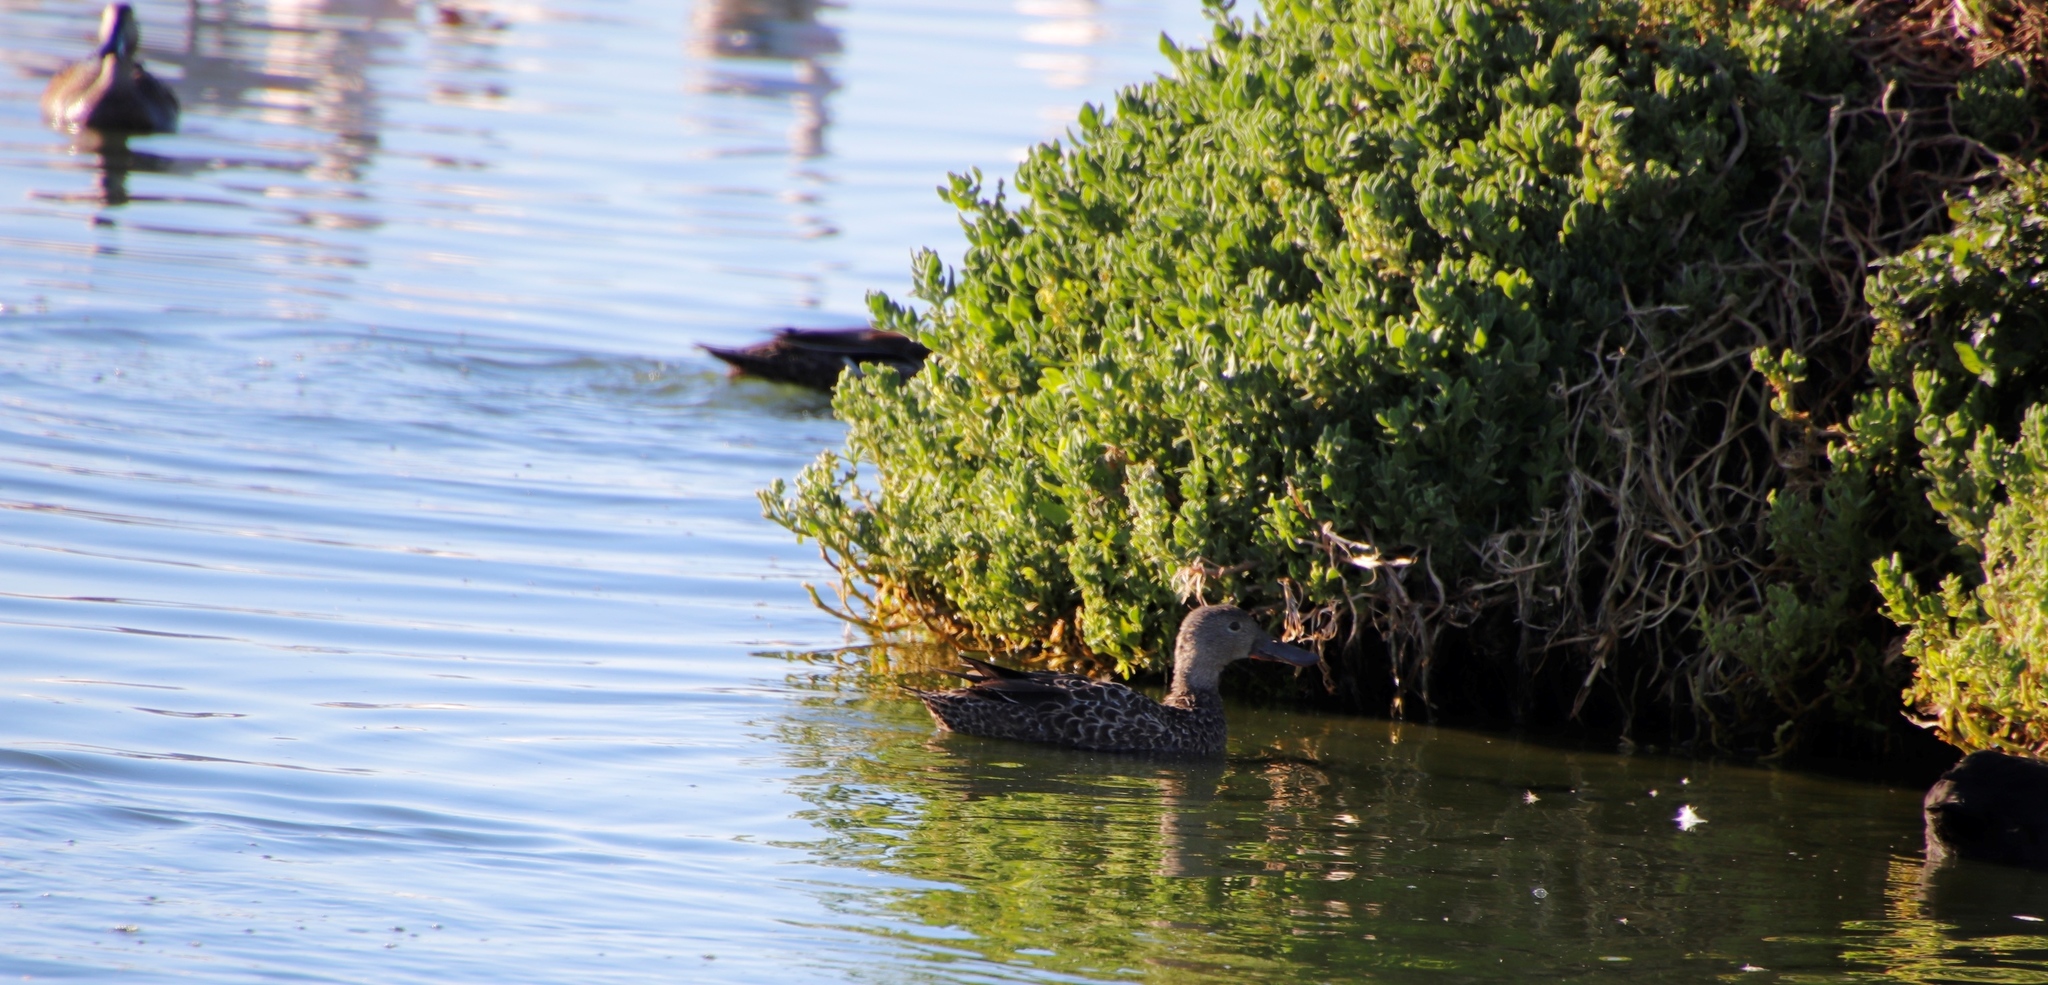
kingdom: Animalia
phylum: Chordata
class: Aves
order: Anseriformes
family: Anatidae
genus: Spatula
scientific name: Spatula smithii
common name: Cape shoveler
